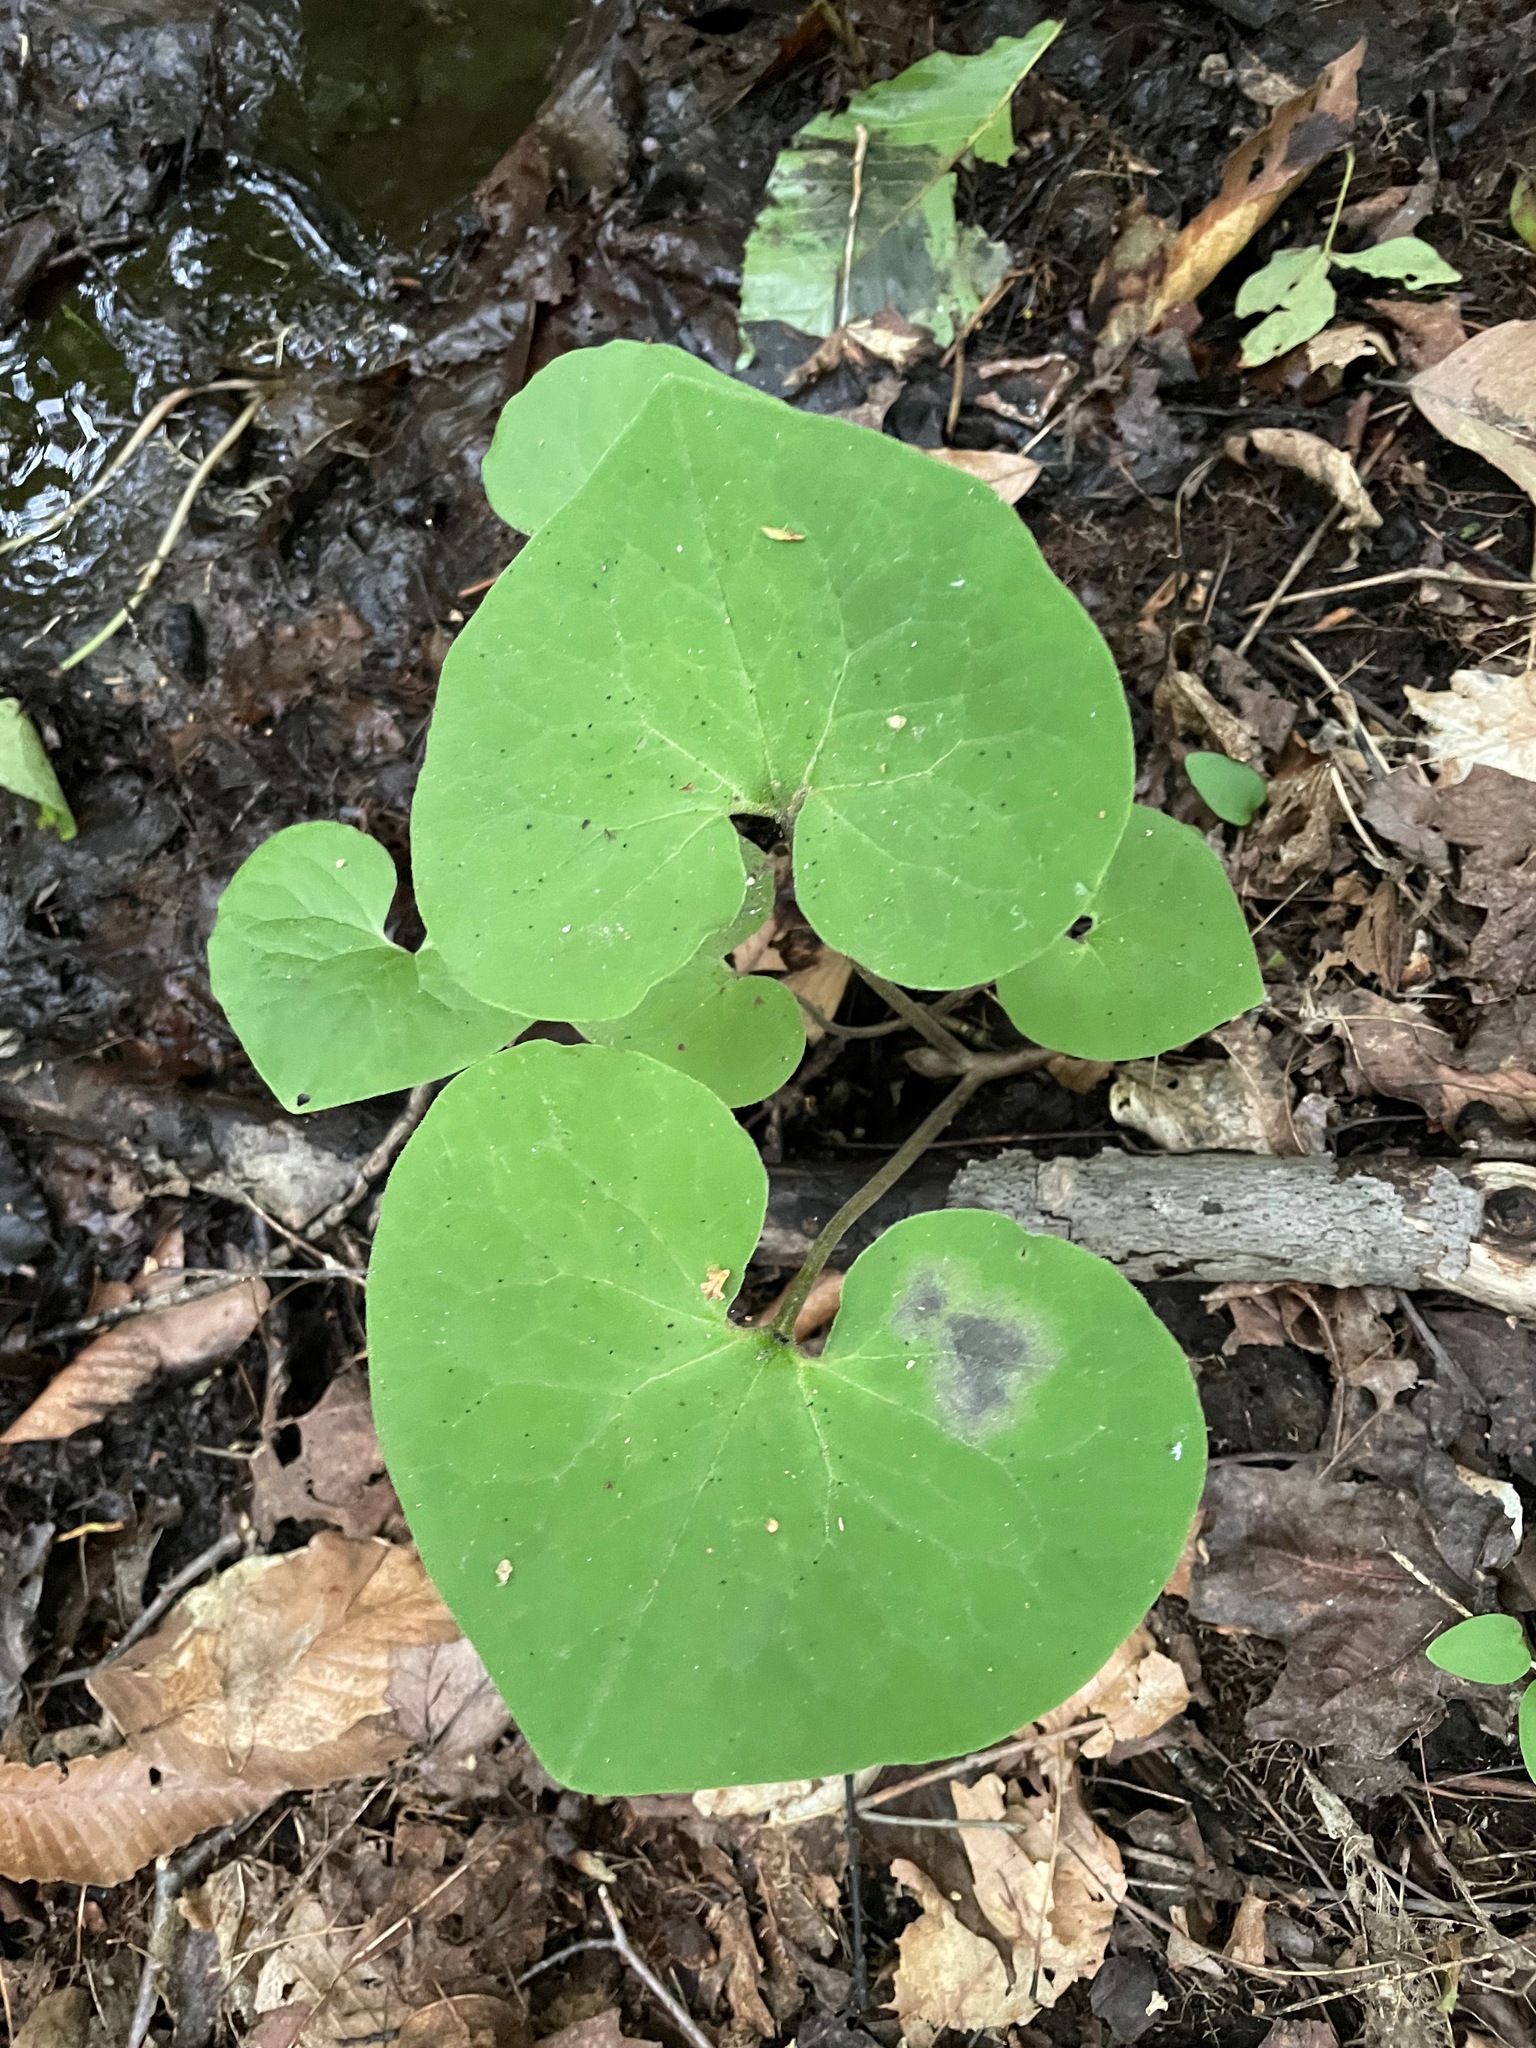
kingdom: Plantae
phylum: Tracheophyta
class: Magnoliopsida
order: Piperales
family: Aristolochiaceae
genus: Asarum
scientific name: Asarum canadense
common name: Wild ginger
